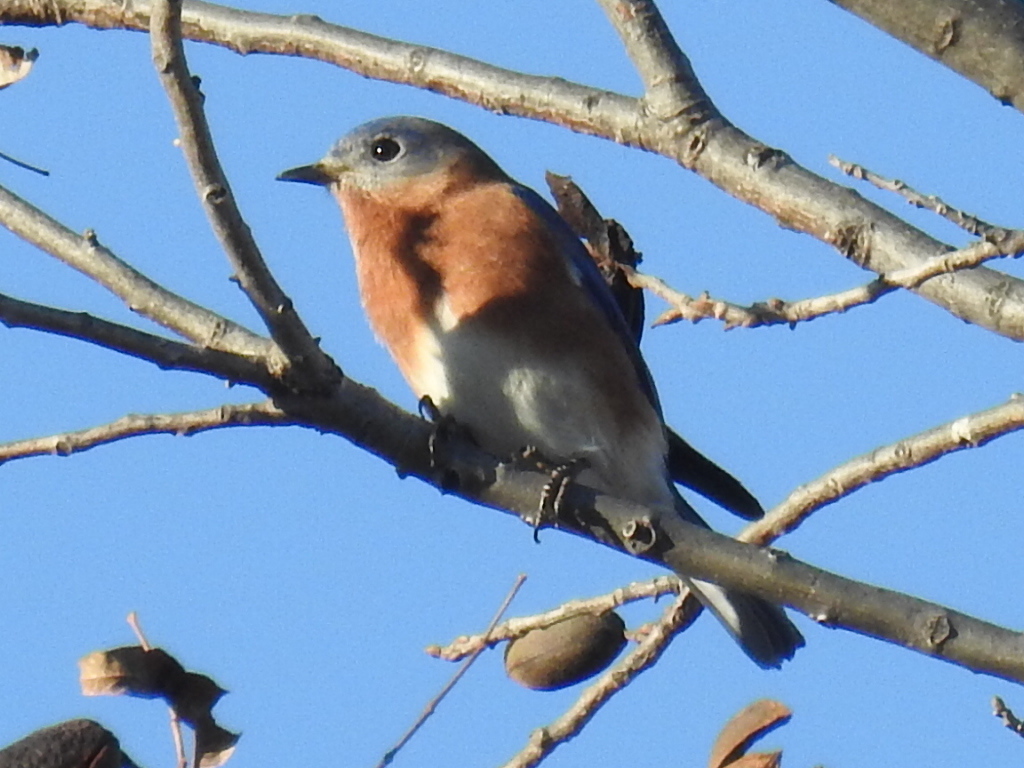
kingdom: Animalia
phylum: Chordata
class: Aves
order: Passeriformes
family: Turdidae
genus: Sialia
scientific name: Sialia sialis
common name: Eastern bluebird
